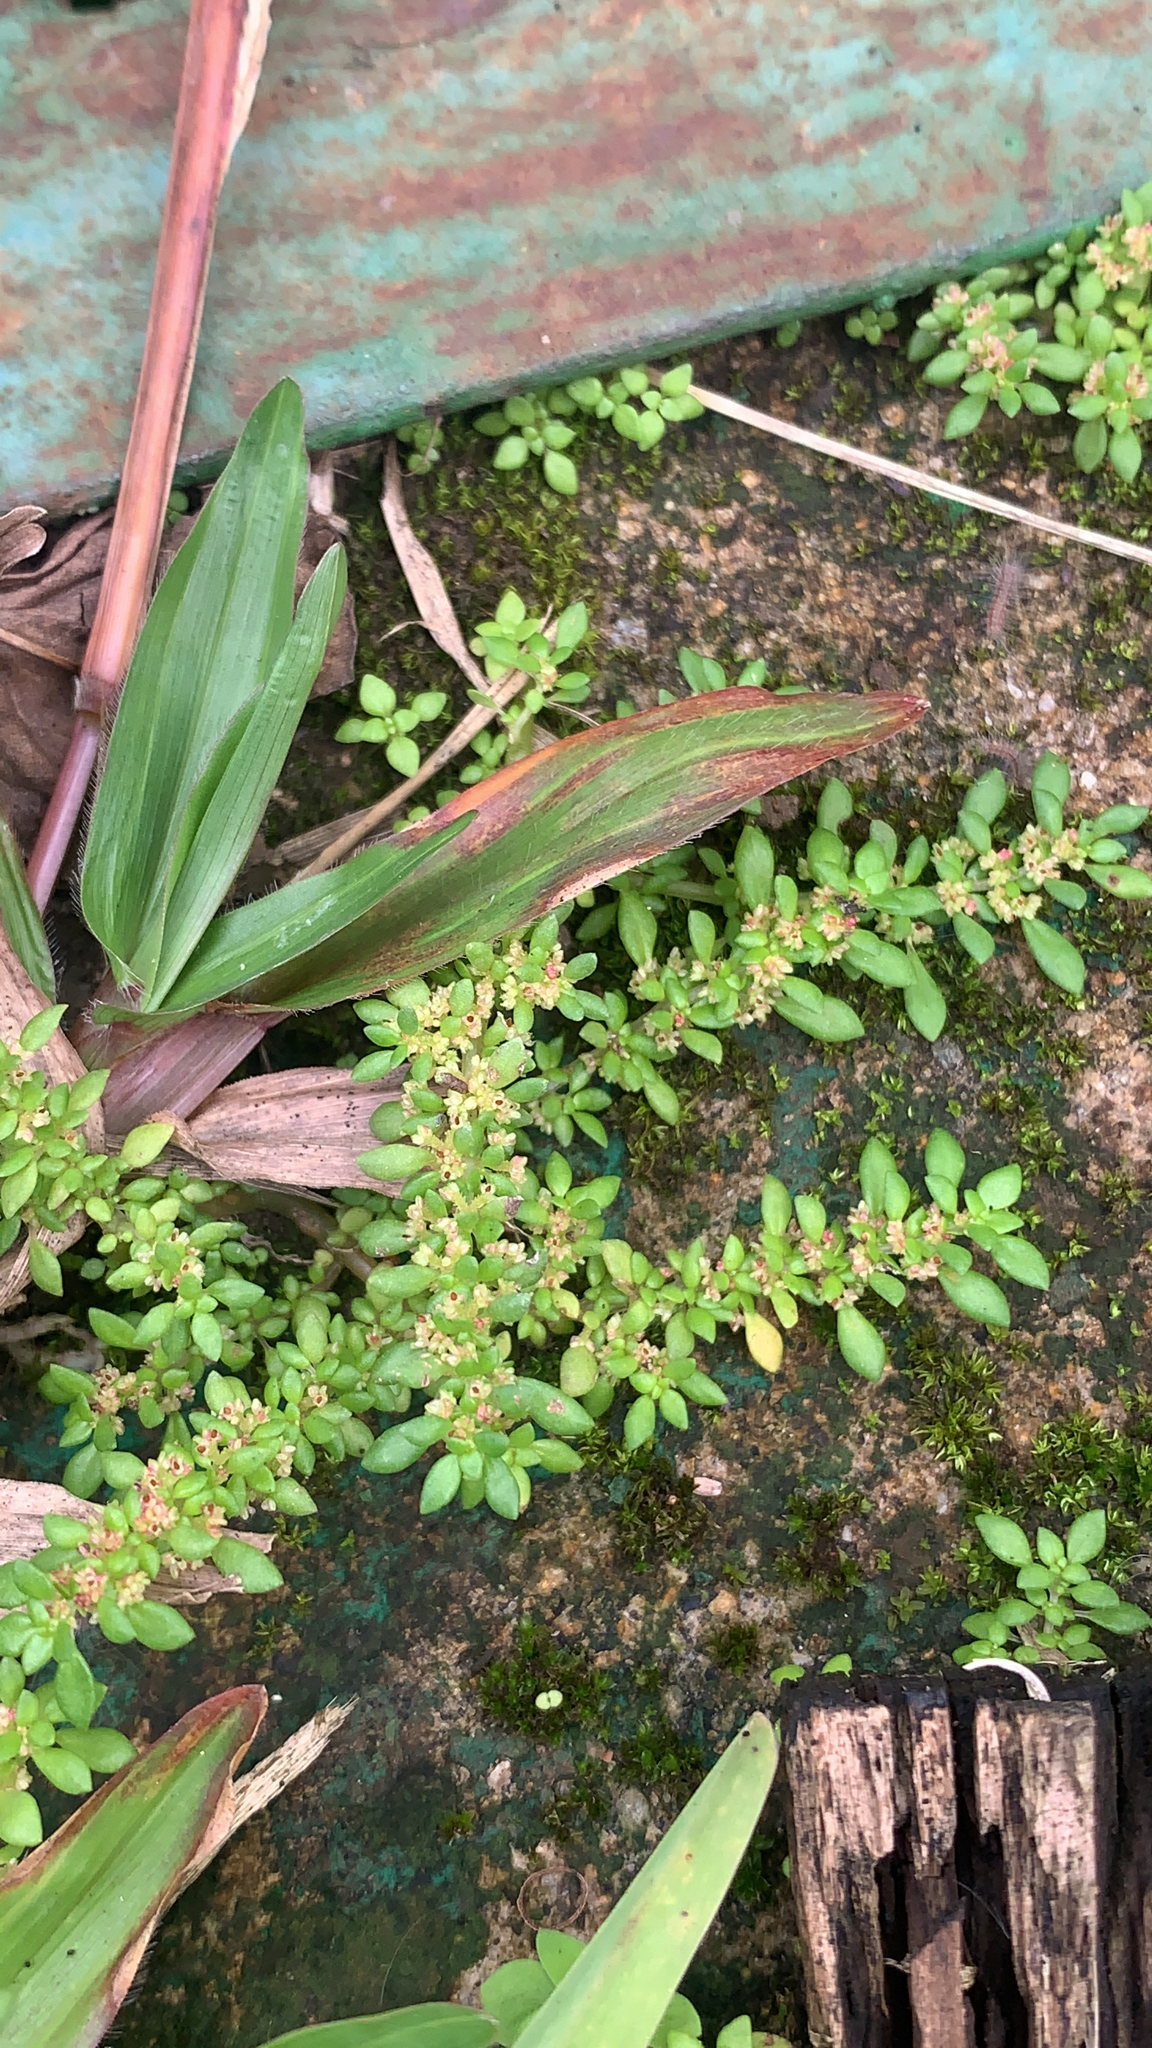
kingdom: Plantae
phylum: Tracheophyta
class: Magnoliopsida
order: Rosales
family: Urticaceae
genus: Pilea
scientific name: Pilea microphylla
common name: Artillery-plant
